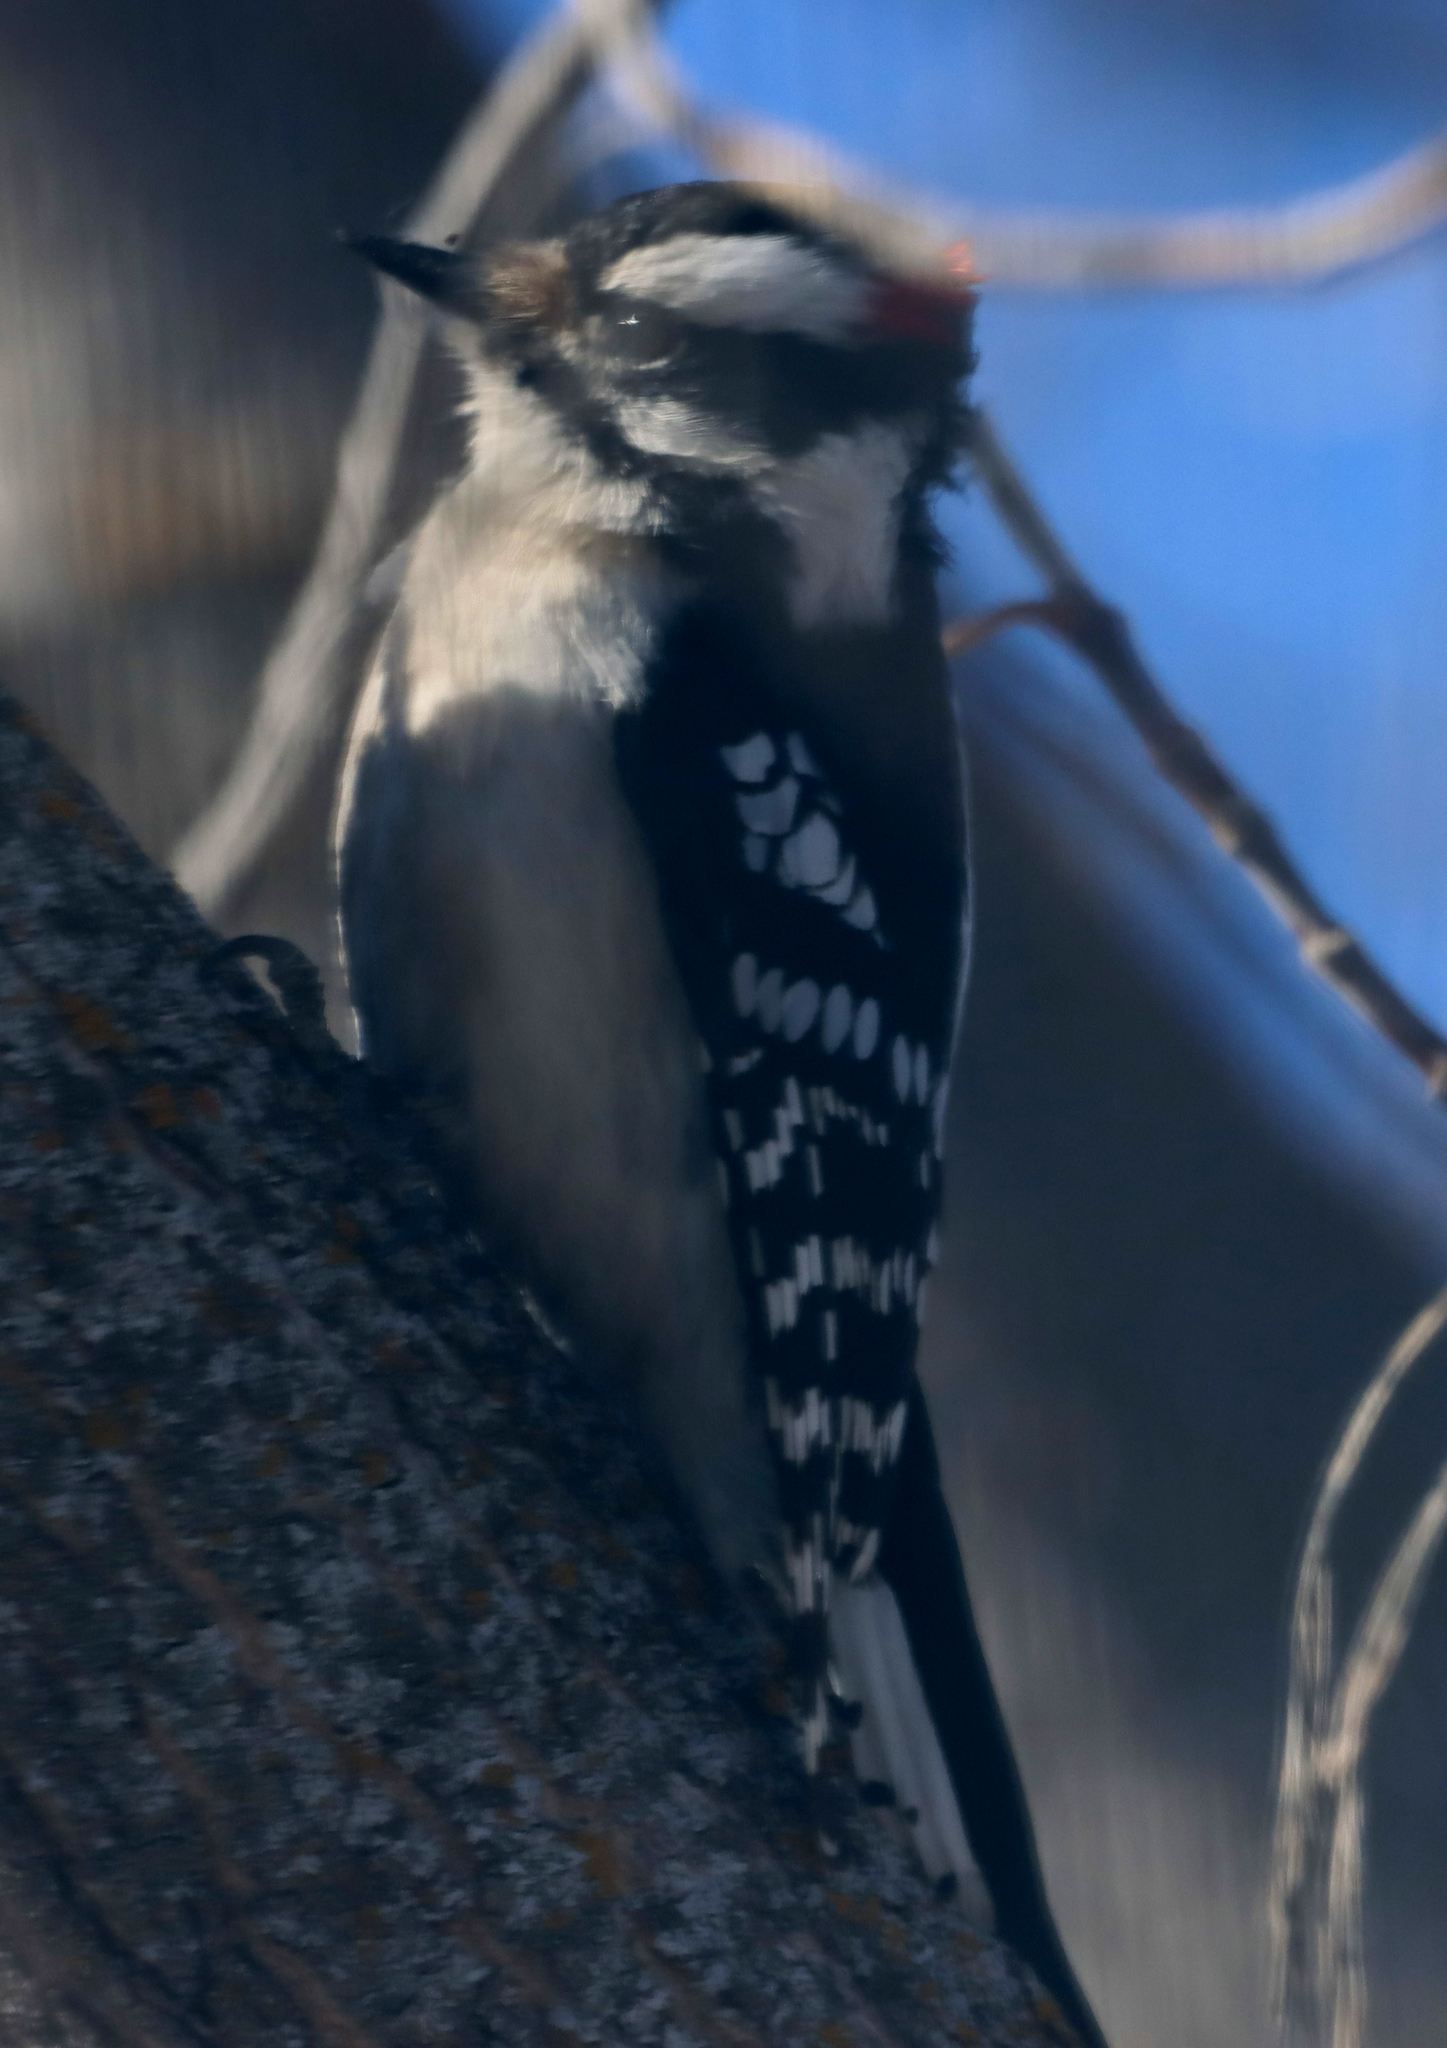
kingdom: Animalia
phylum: Chordata
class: Aves
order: Piciformes
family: Picidae
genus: Dryobates
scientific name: Dryobates pubescens
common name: Downy woodpecker
